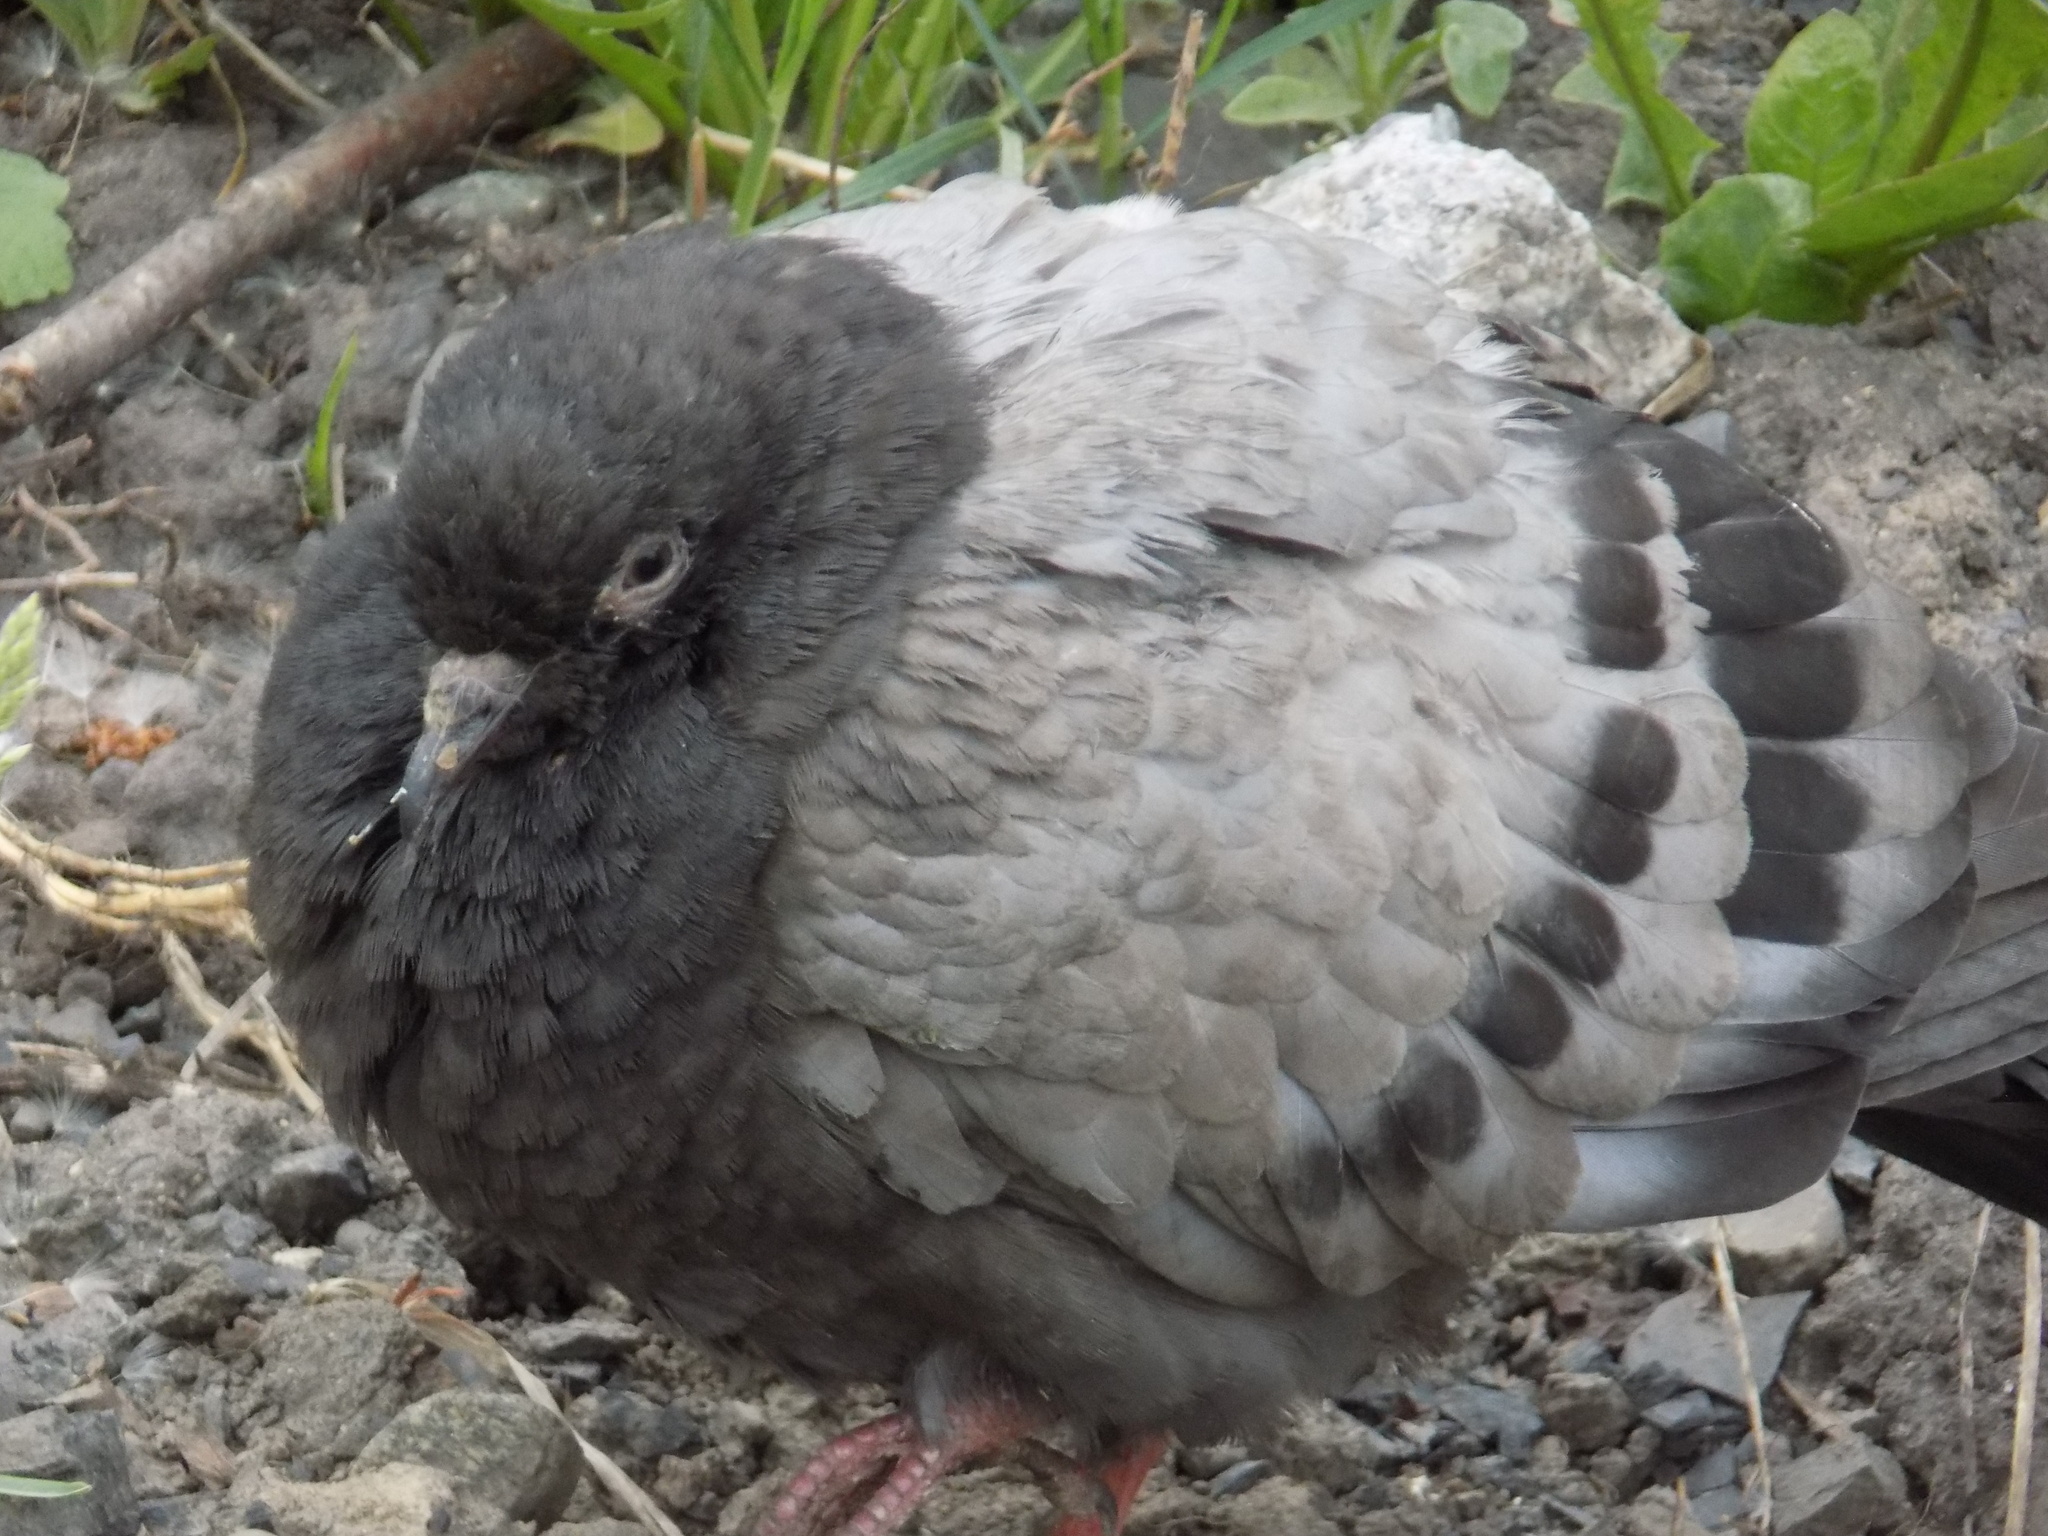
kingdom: Animalia
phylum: Chordata
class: Aves
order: Columbiformes
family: Columbidae
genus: Columba
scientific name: Columba livia
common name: Rock pigeon
